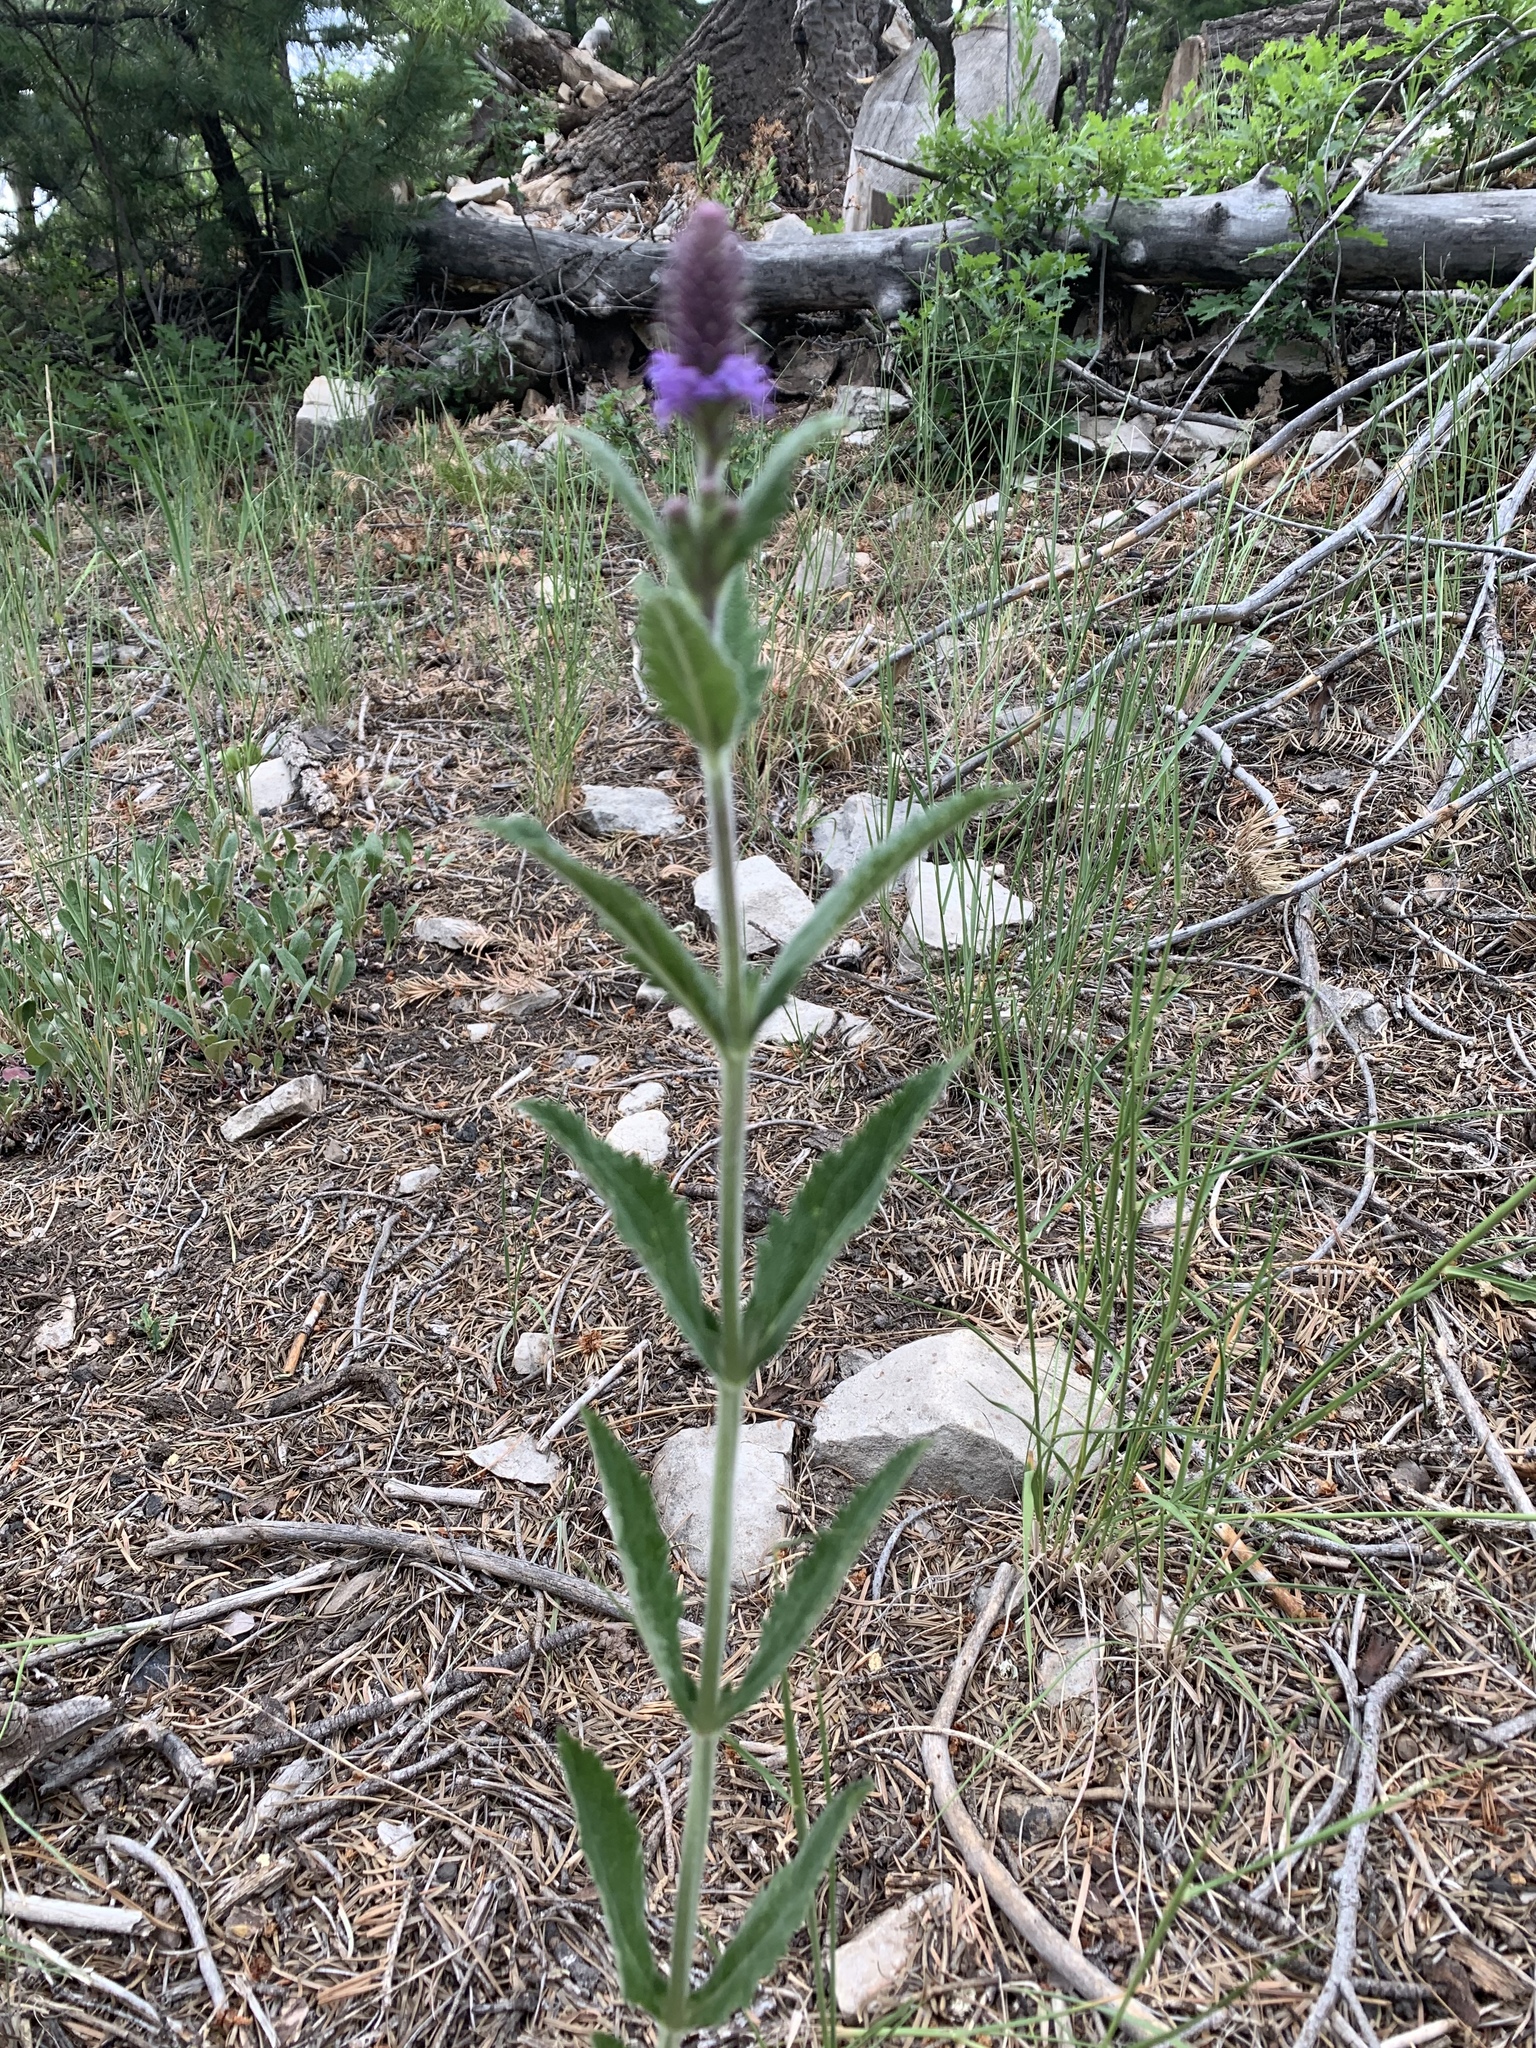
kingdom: Plantae
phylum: Tracheophyta
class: Magnoliopsida
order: Lamiales
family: Verbenaceae
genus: Verbena
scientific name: Verbena macdougalii
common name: New mexico vervain
